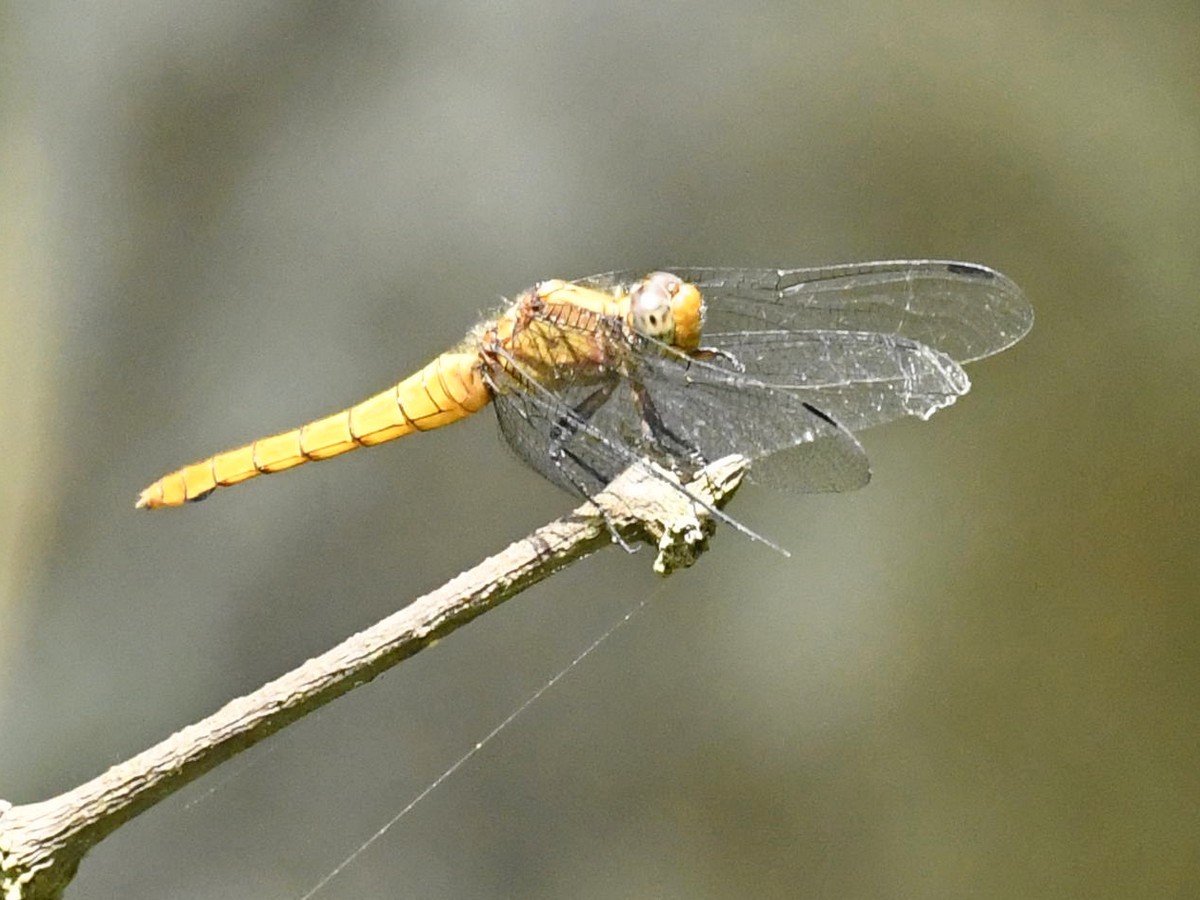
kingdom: Animalia
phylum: Arthropoda
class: Insecta
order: Odonata
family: Libellulidae
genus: Orthetrum
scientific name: Orthetrum pruinosum
